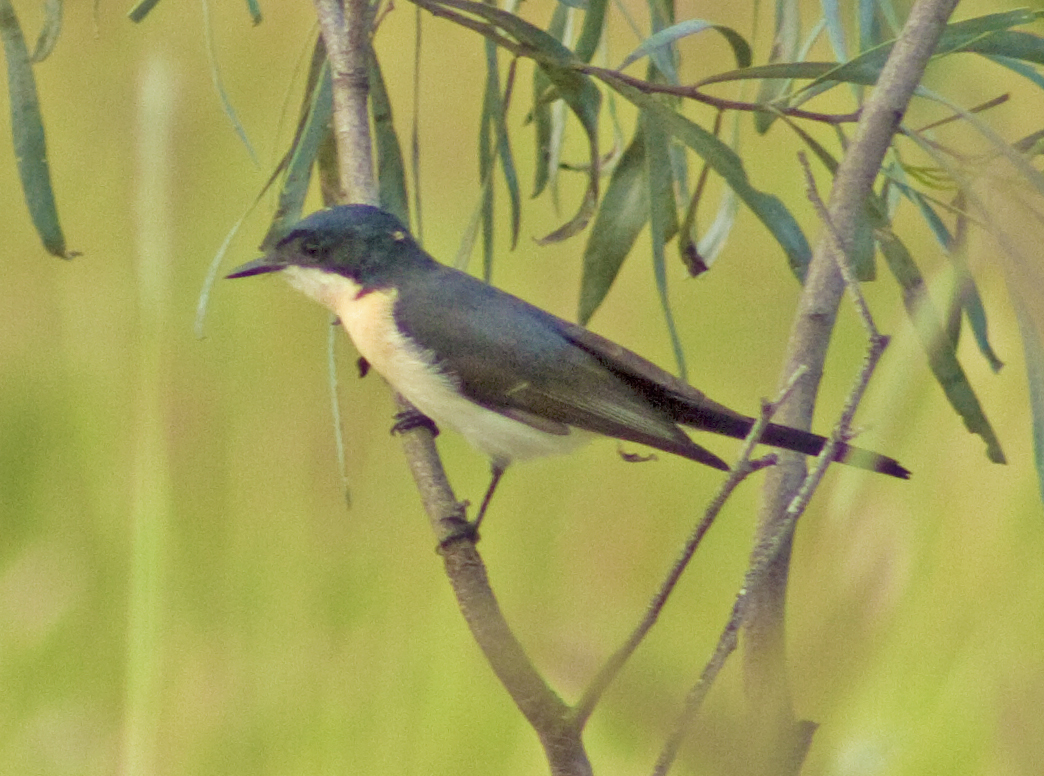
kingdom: Animalia
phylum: Chordata
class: Aves
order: Passeriformes
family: Monarchidae
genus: Myiagra
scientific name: Myiagra inquieta
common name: Restless flycatcher
